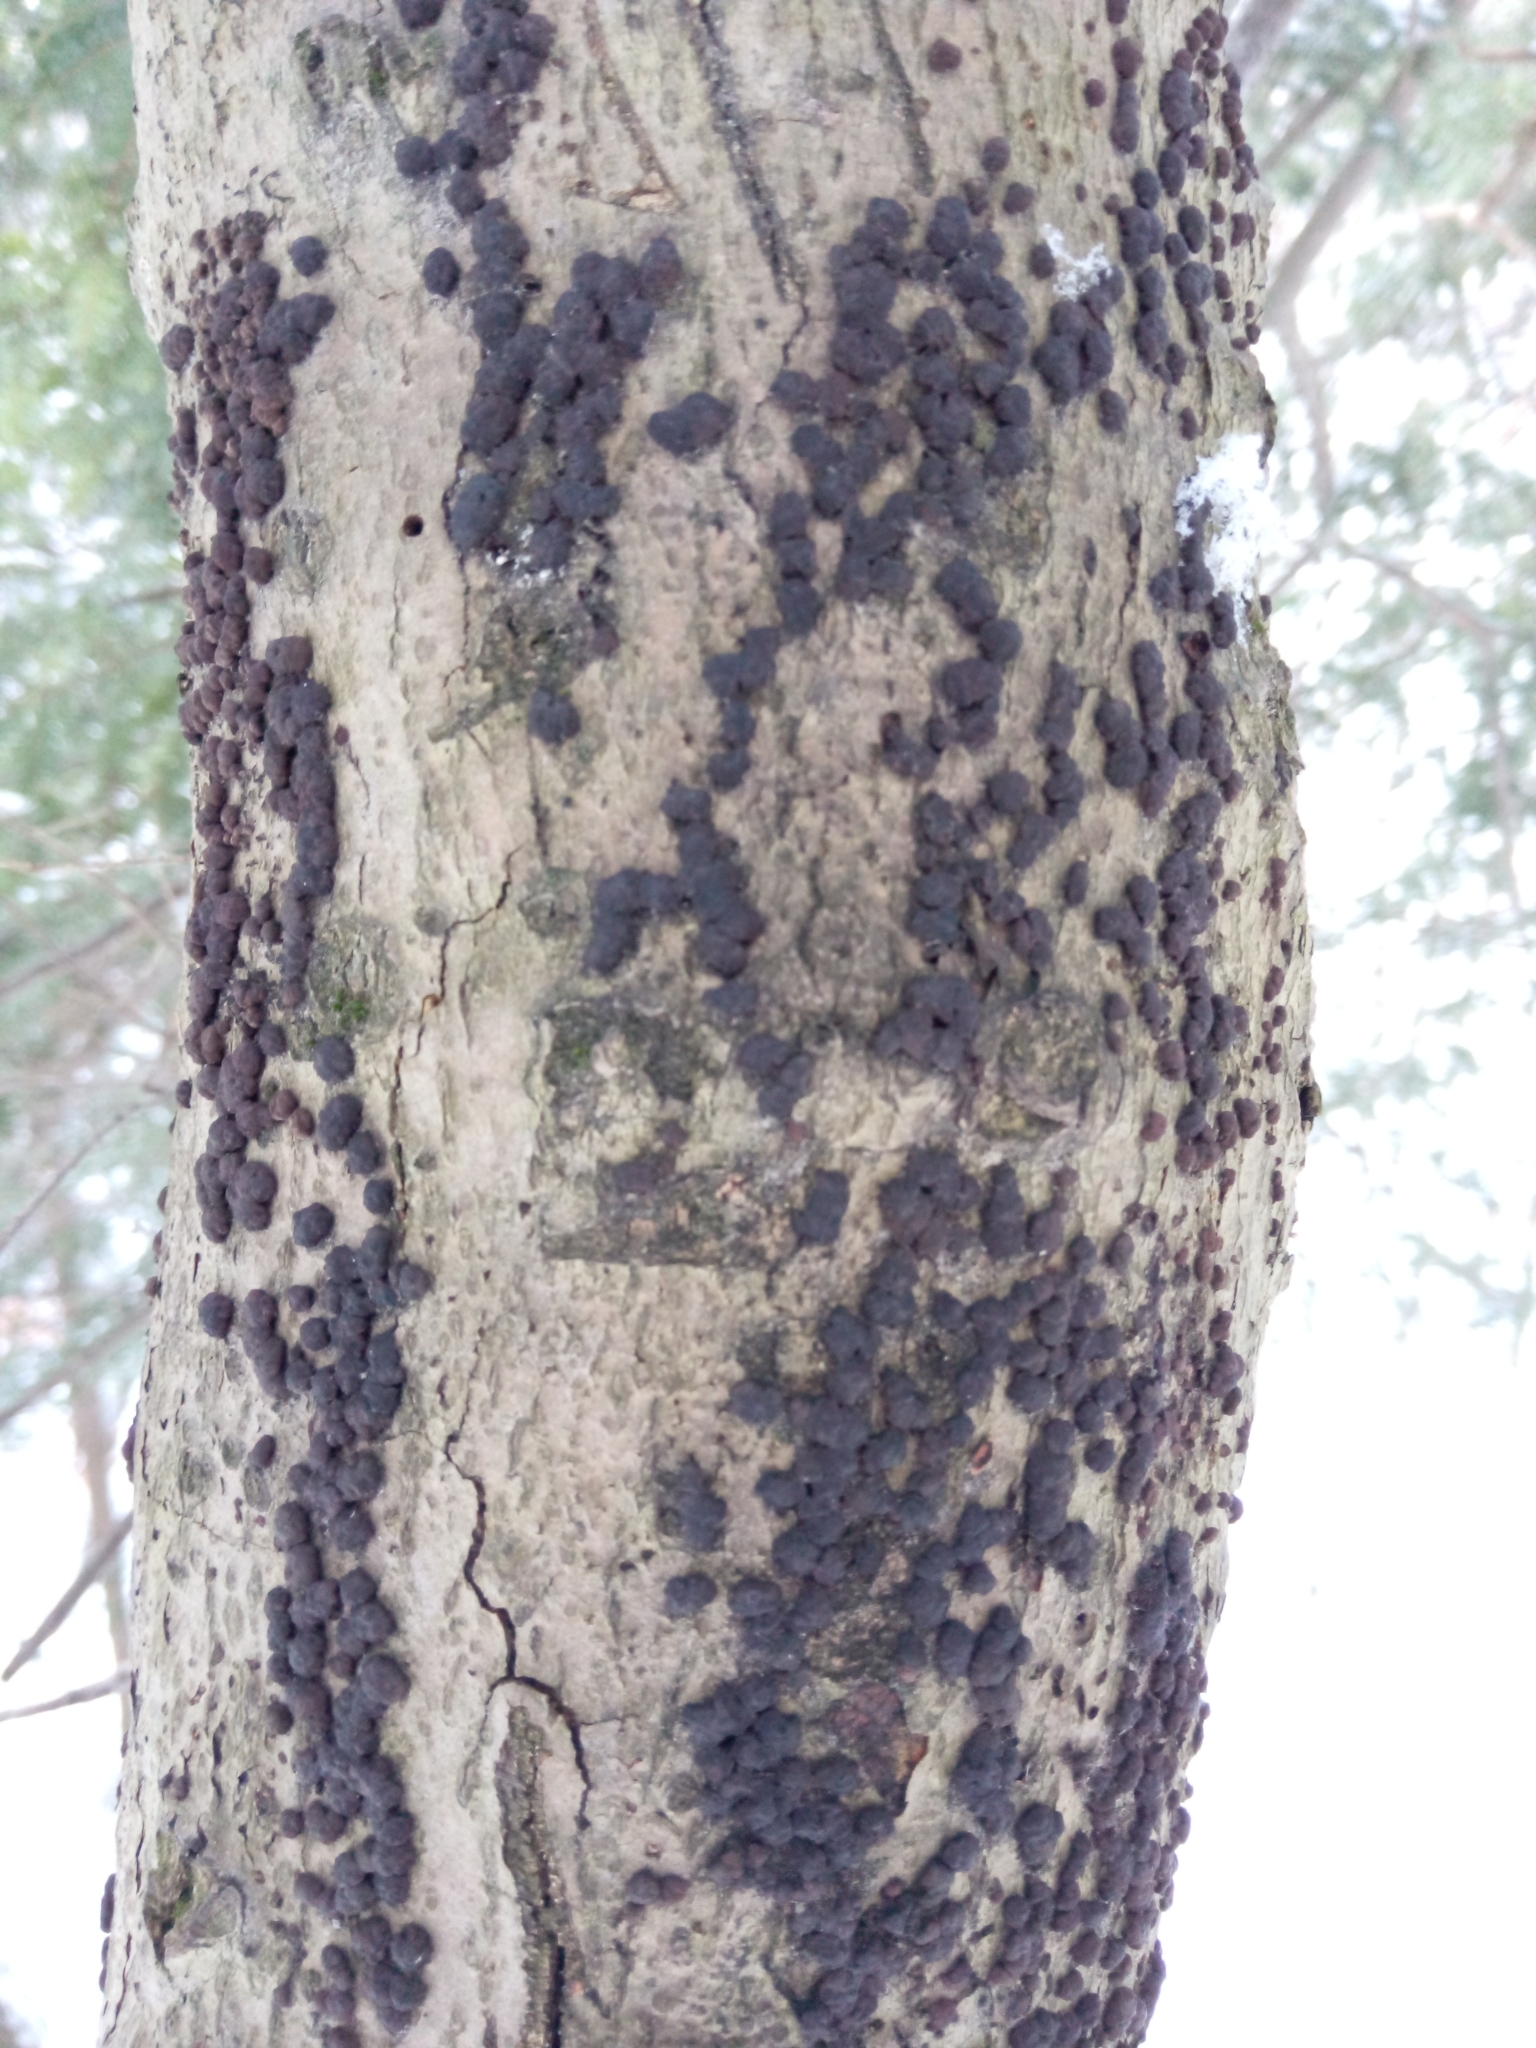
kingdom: Fungi
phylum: Ascomycota
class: Sordariomycetes
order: Xylariales
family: Hypoxylaceae
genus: Hypoxylon
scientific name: Hypoxylon fragiforme
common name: Beech woodwart
